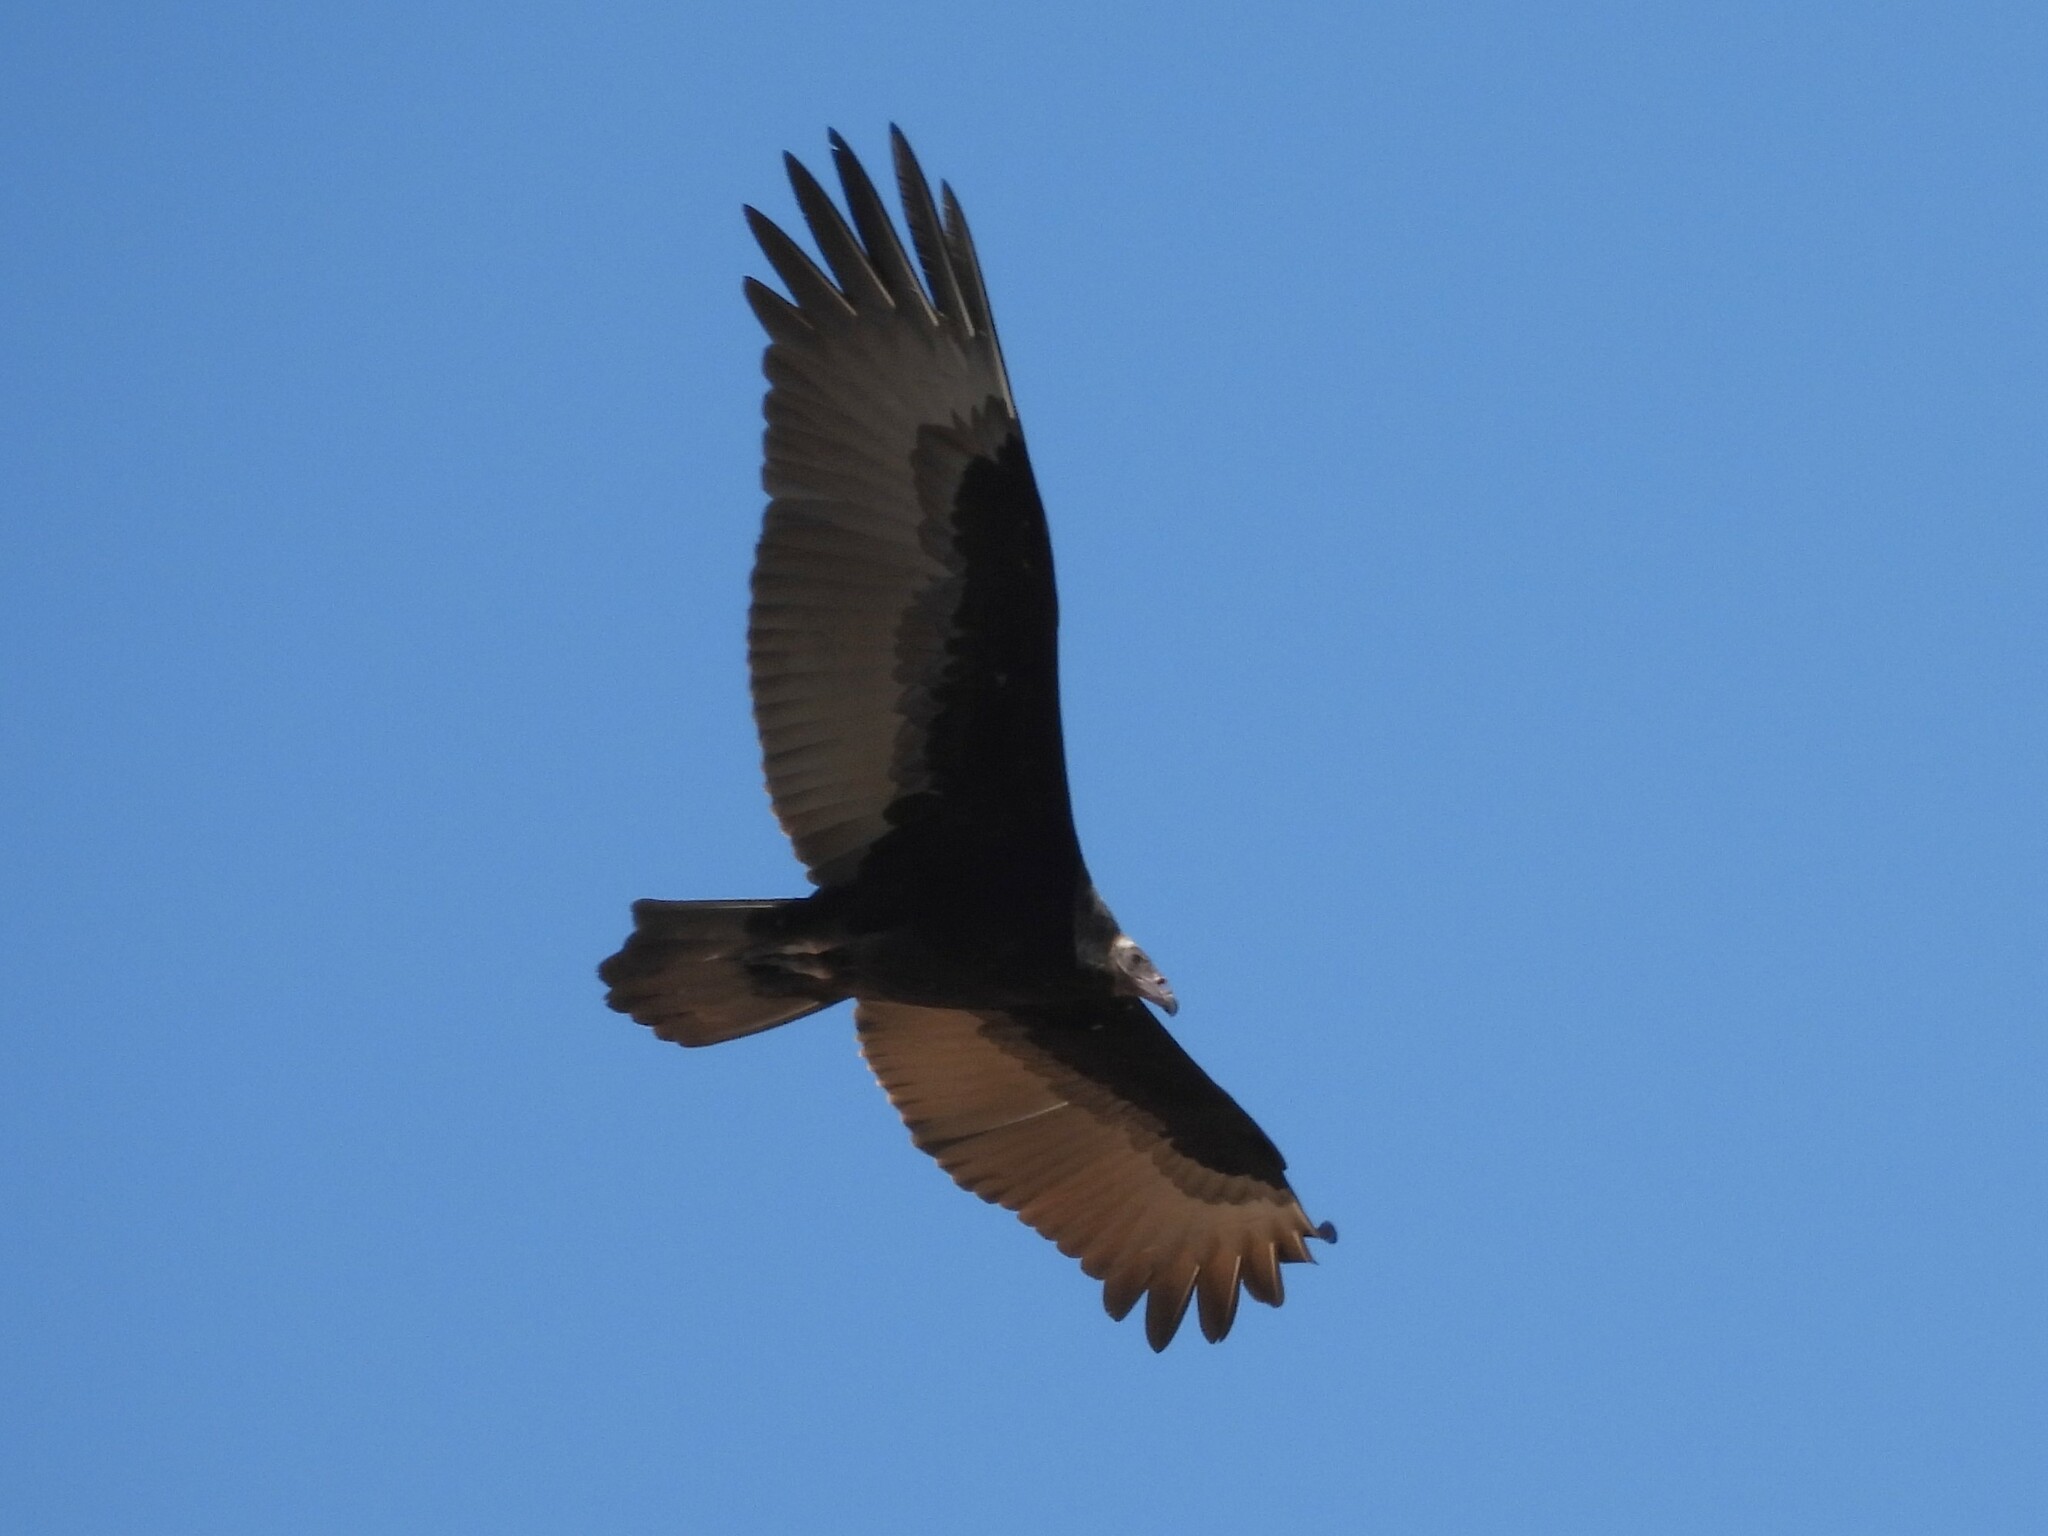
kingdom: Animalia
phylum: Chordata
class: Aves
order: Accipitriformes
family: Cathartidae
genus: Cathartes
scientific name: Cathartes aura
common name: Turkey vulture
